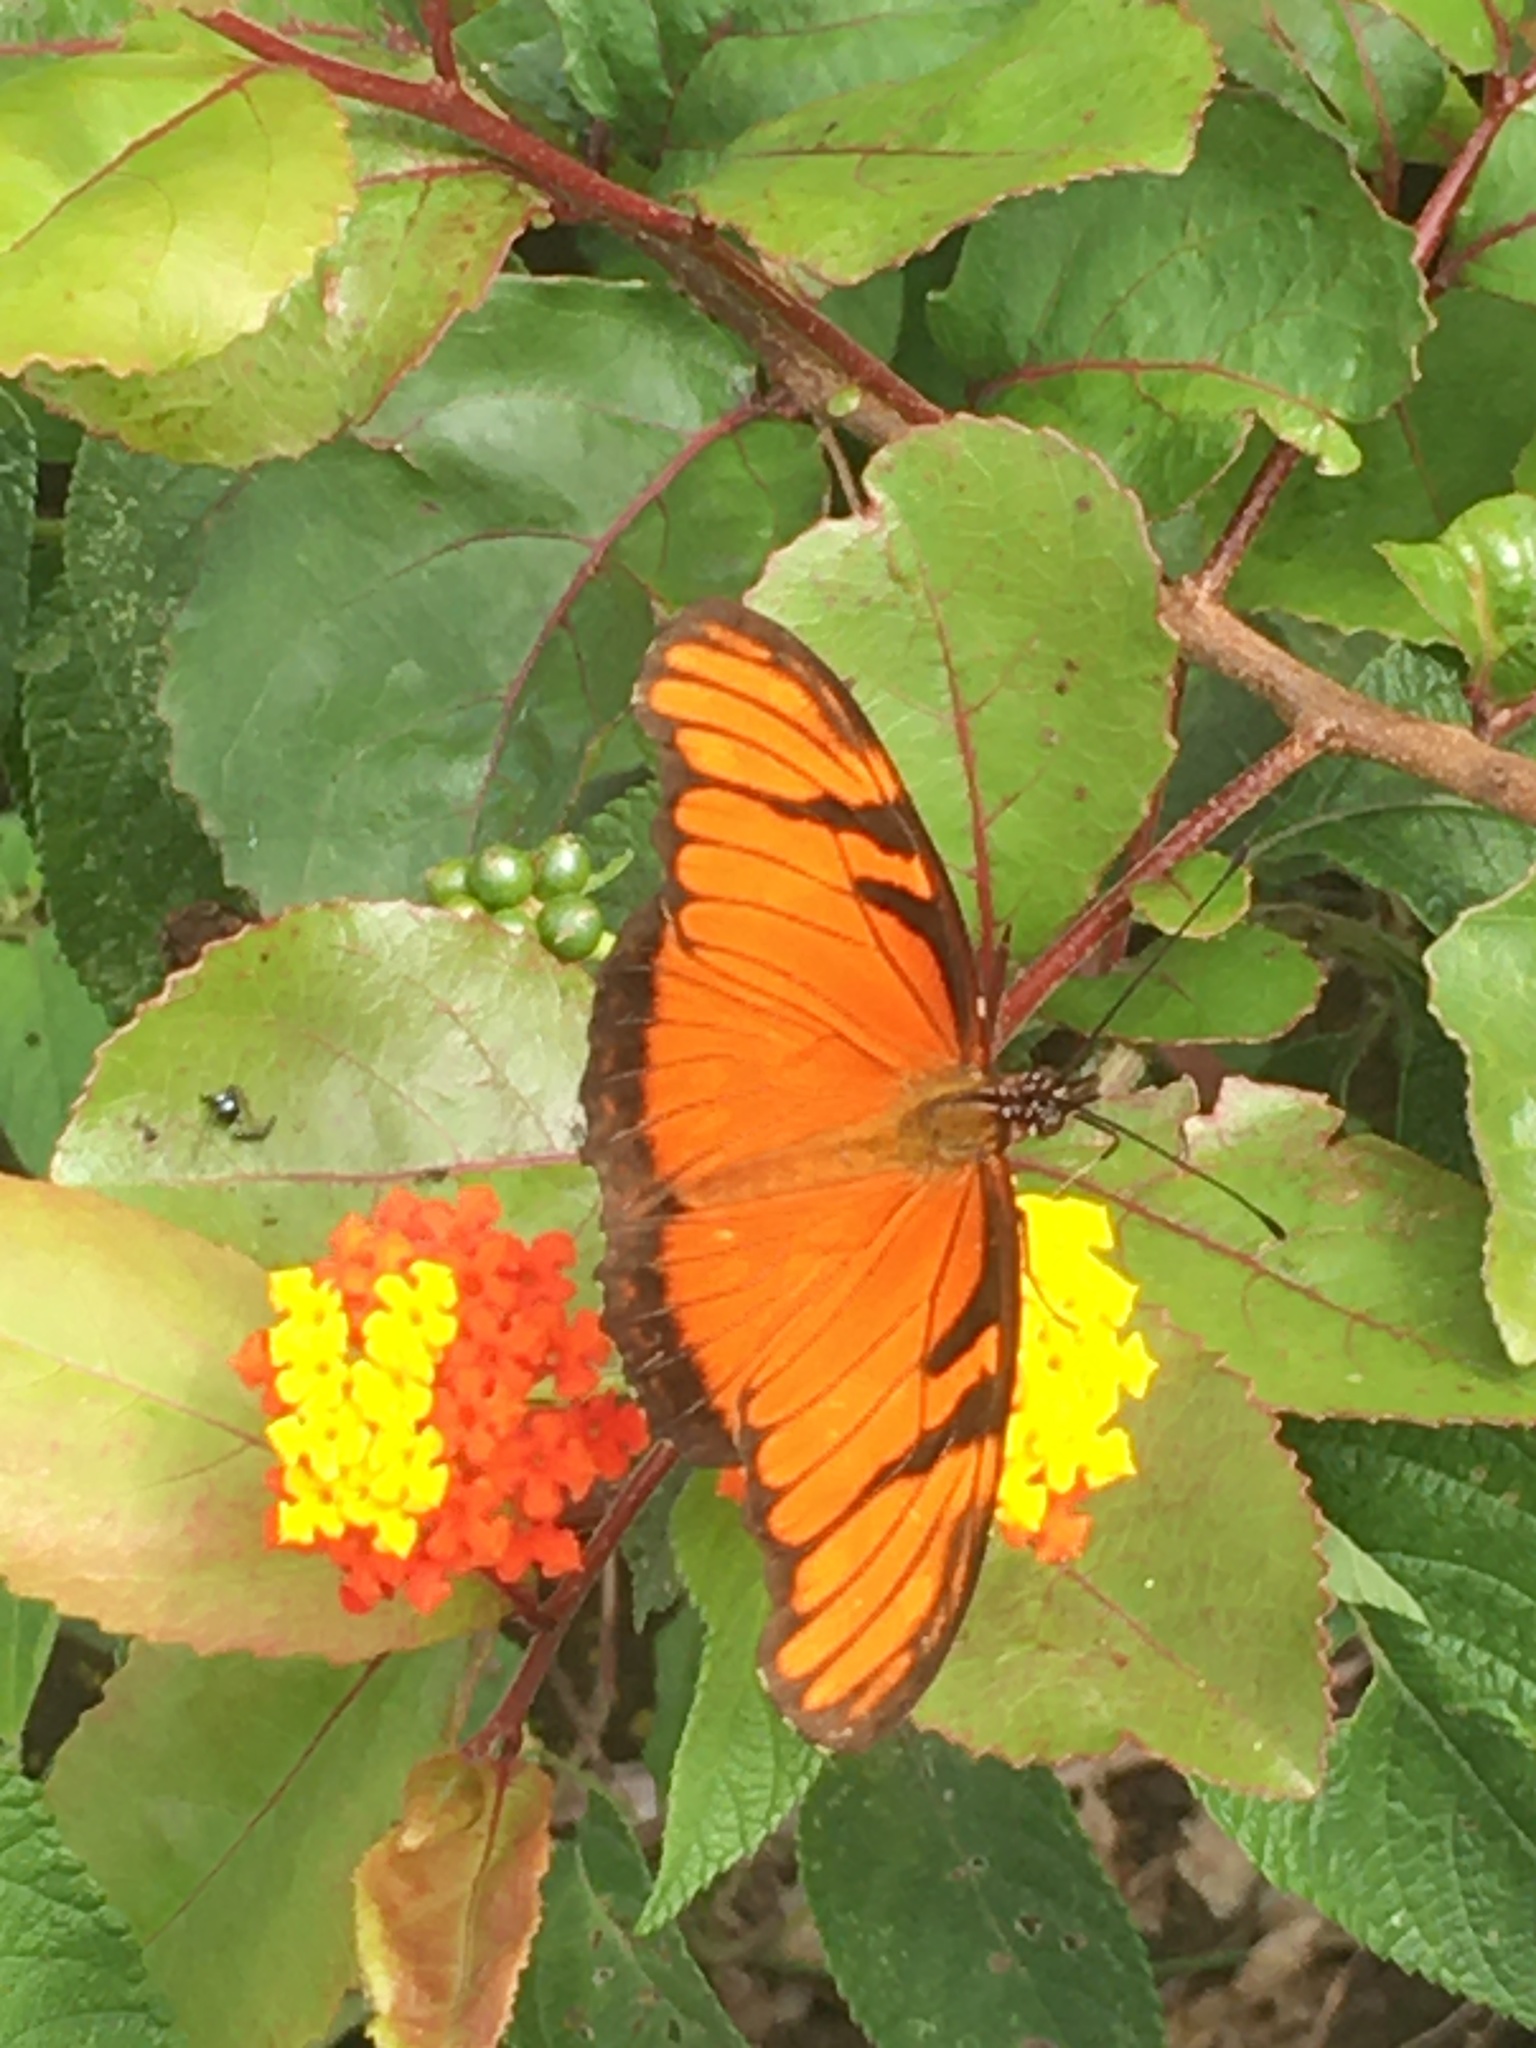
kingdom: Animalia
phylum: Arthropoda
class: Insecta
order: Lepidoptera
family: Nymphalidae
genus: Dione
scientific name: Dione juno
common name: Juno silverspot
